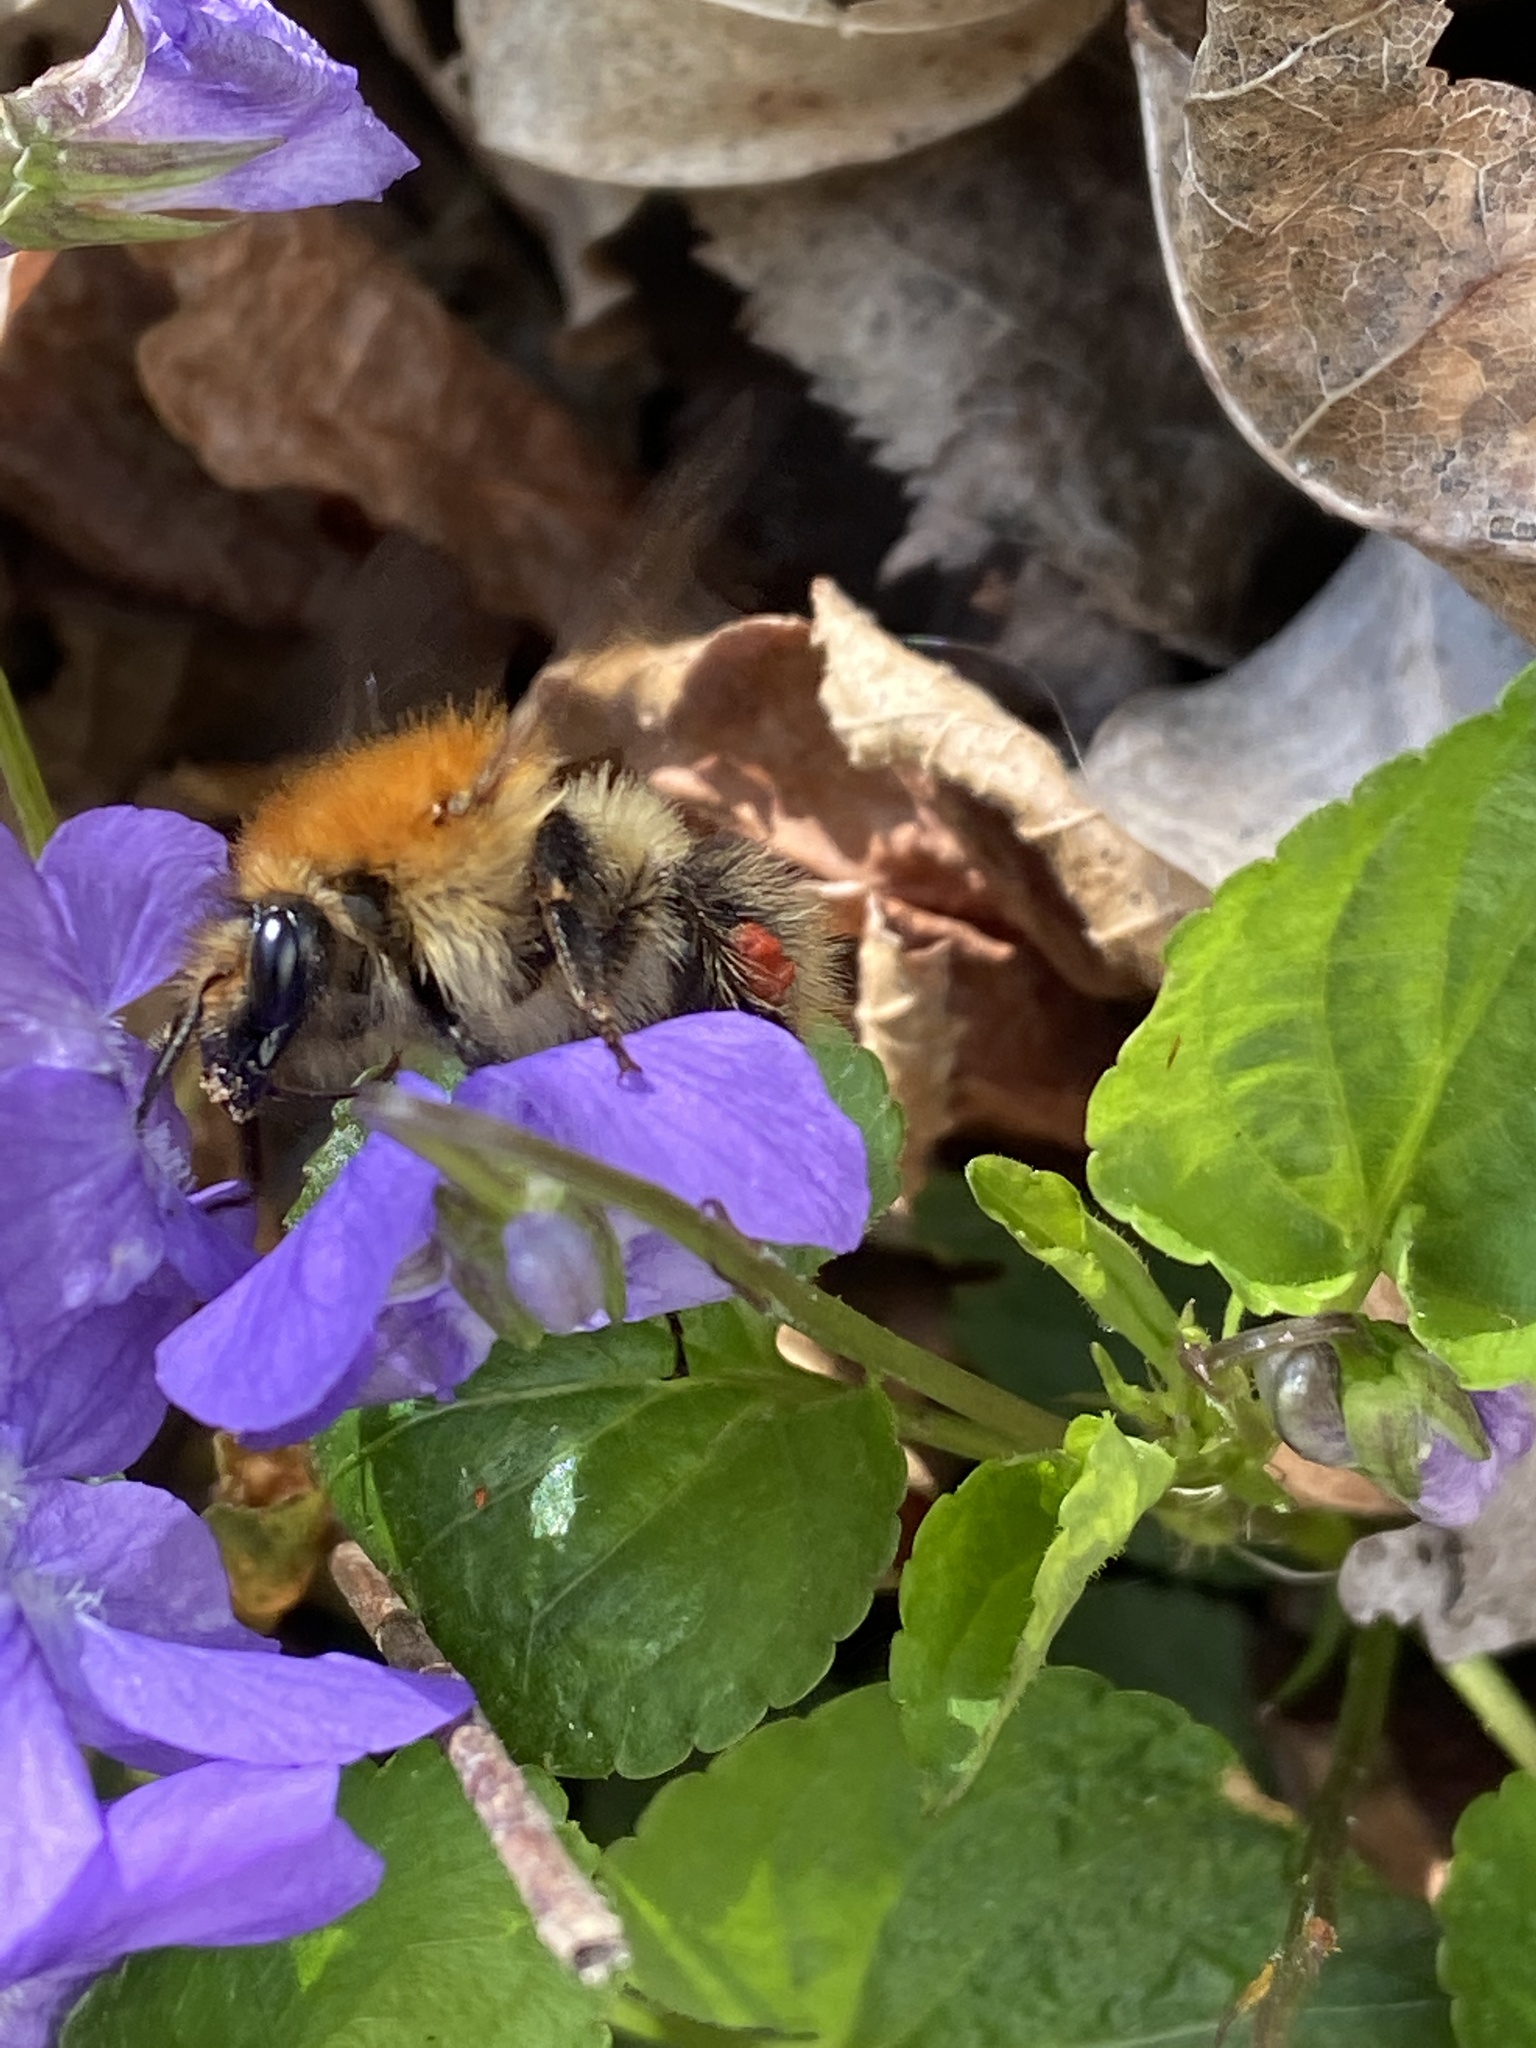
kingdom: Animalia
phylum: Arthropoda
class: Insecta
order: Hymenoptera
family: Apidae
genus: Bombus
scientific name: Bombus pascuorum
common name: Common carder bee
